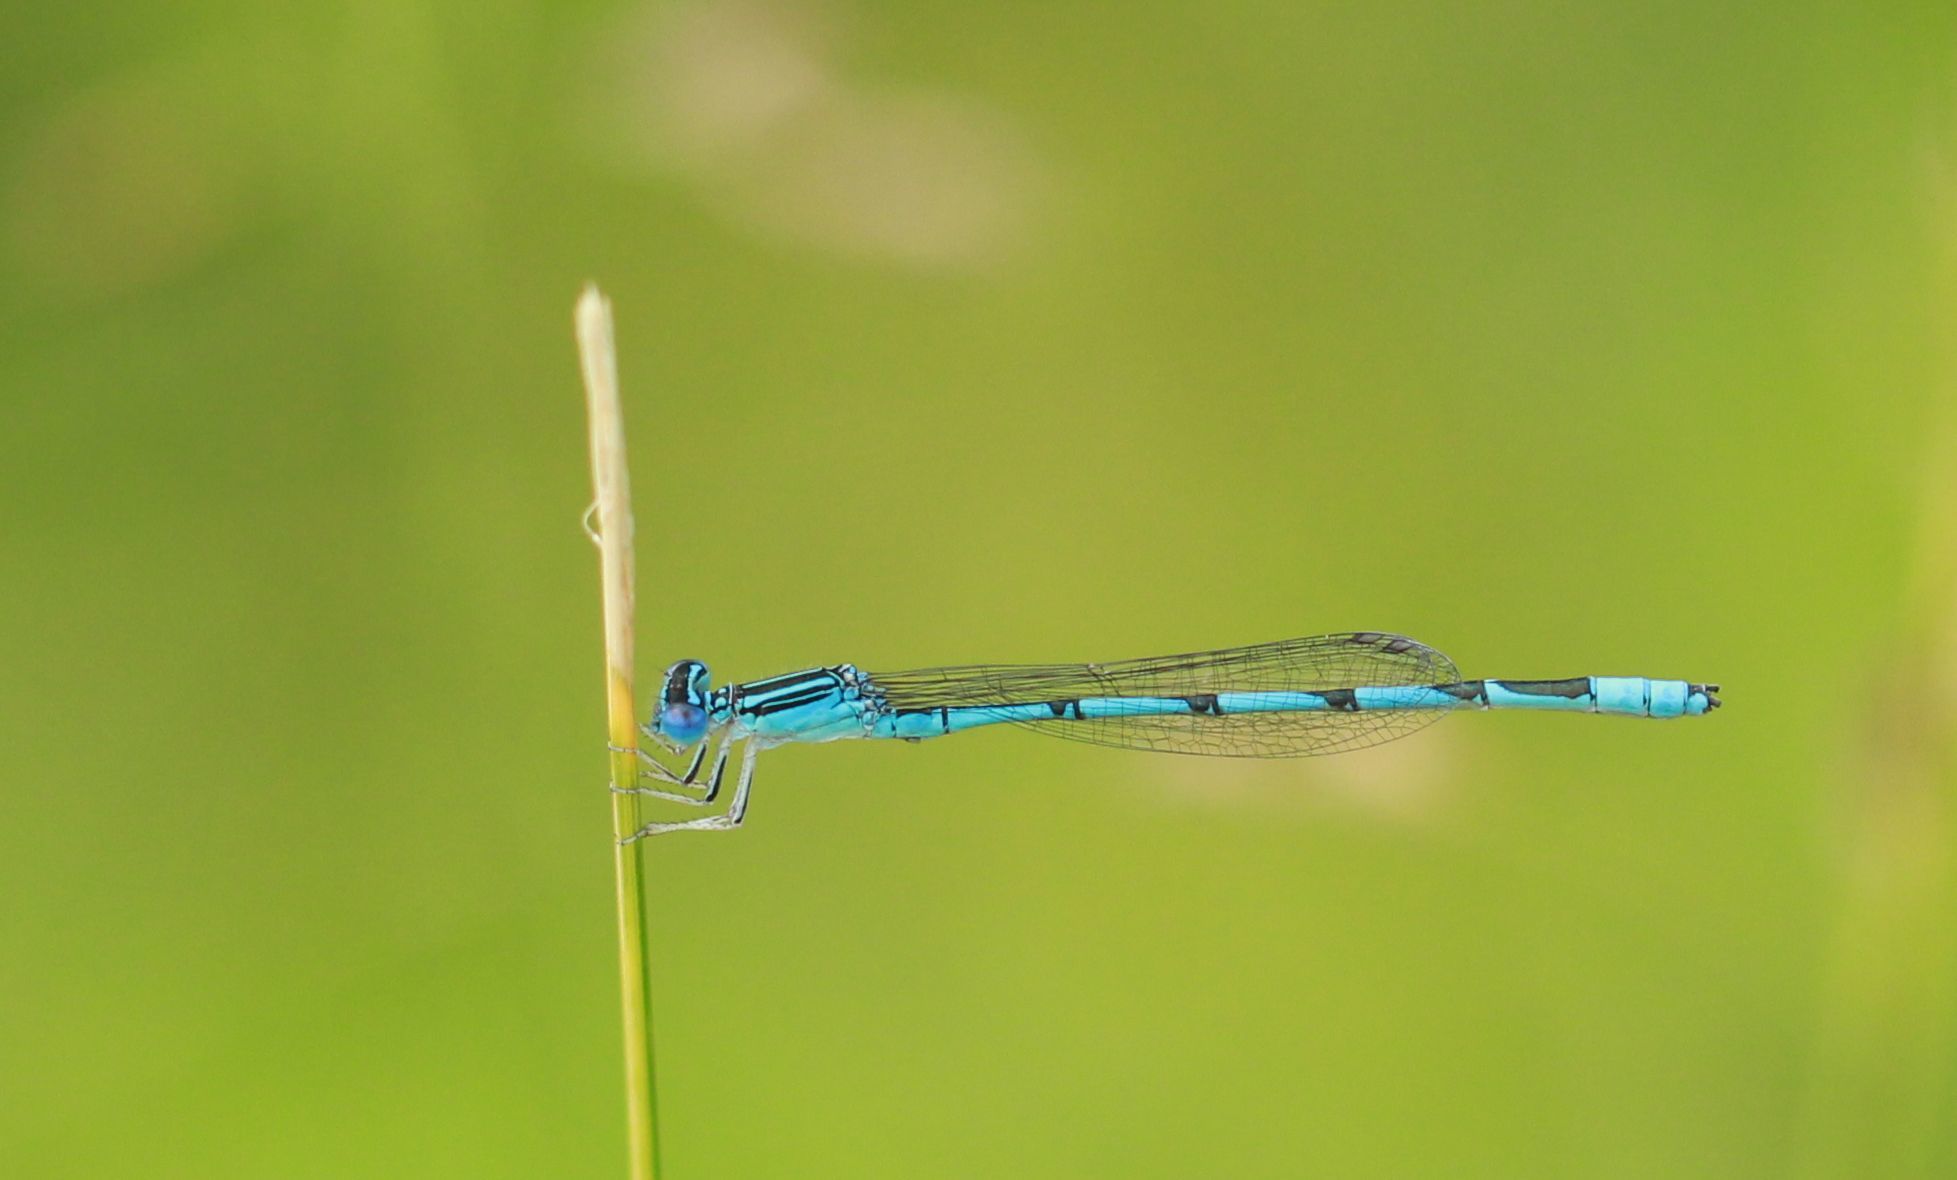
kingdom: Animalia
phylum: Arthropoda
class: Insecta
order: Odonata
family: Coenagrionidae
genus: Enallagma
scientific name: Enallagma basidens
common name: Double-striped bluet
